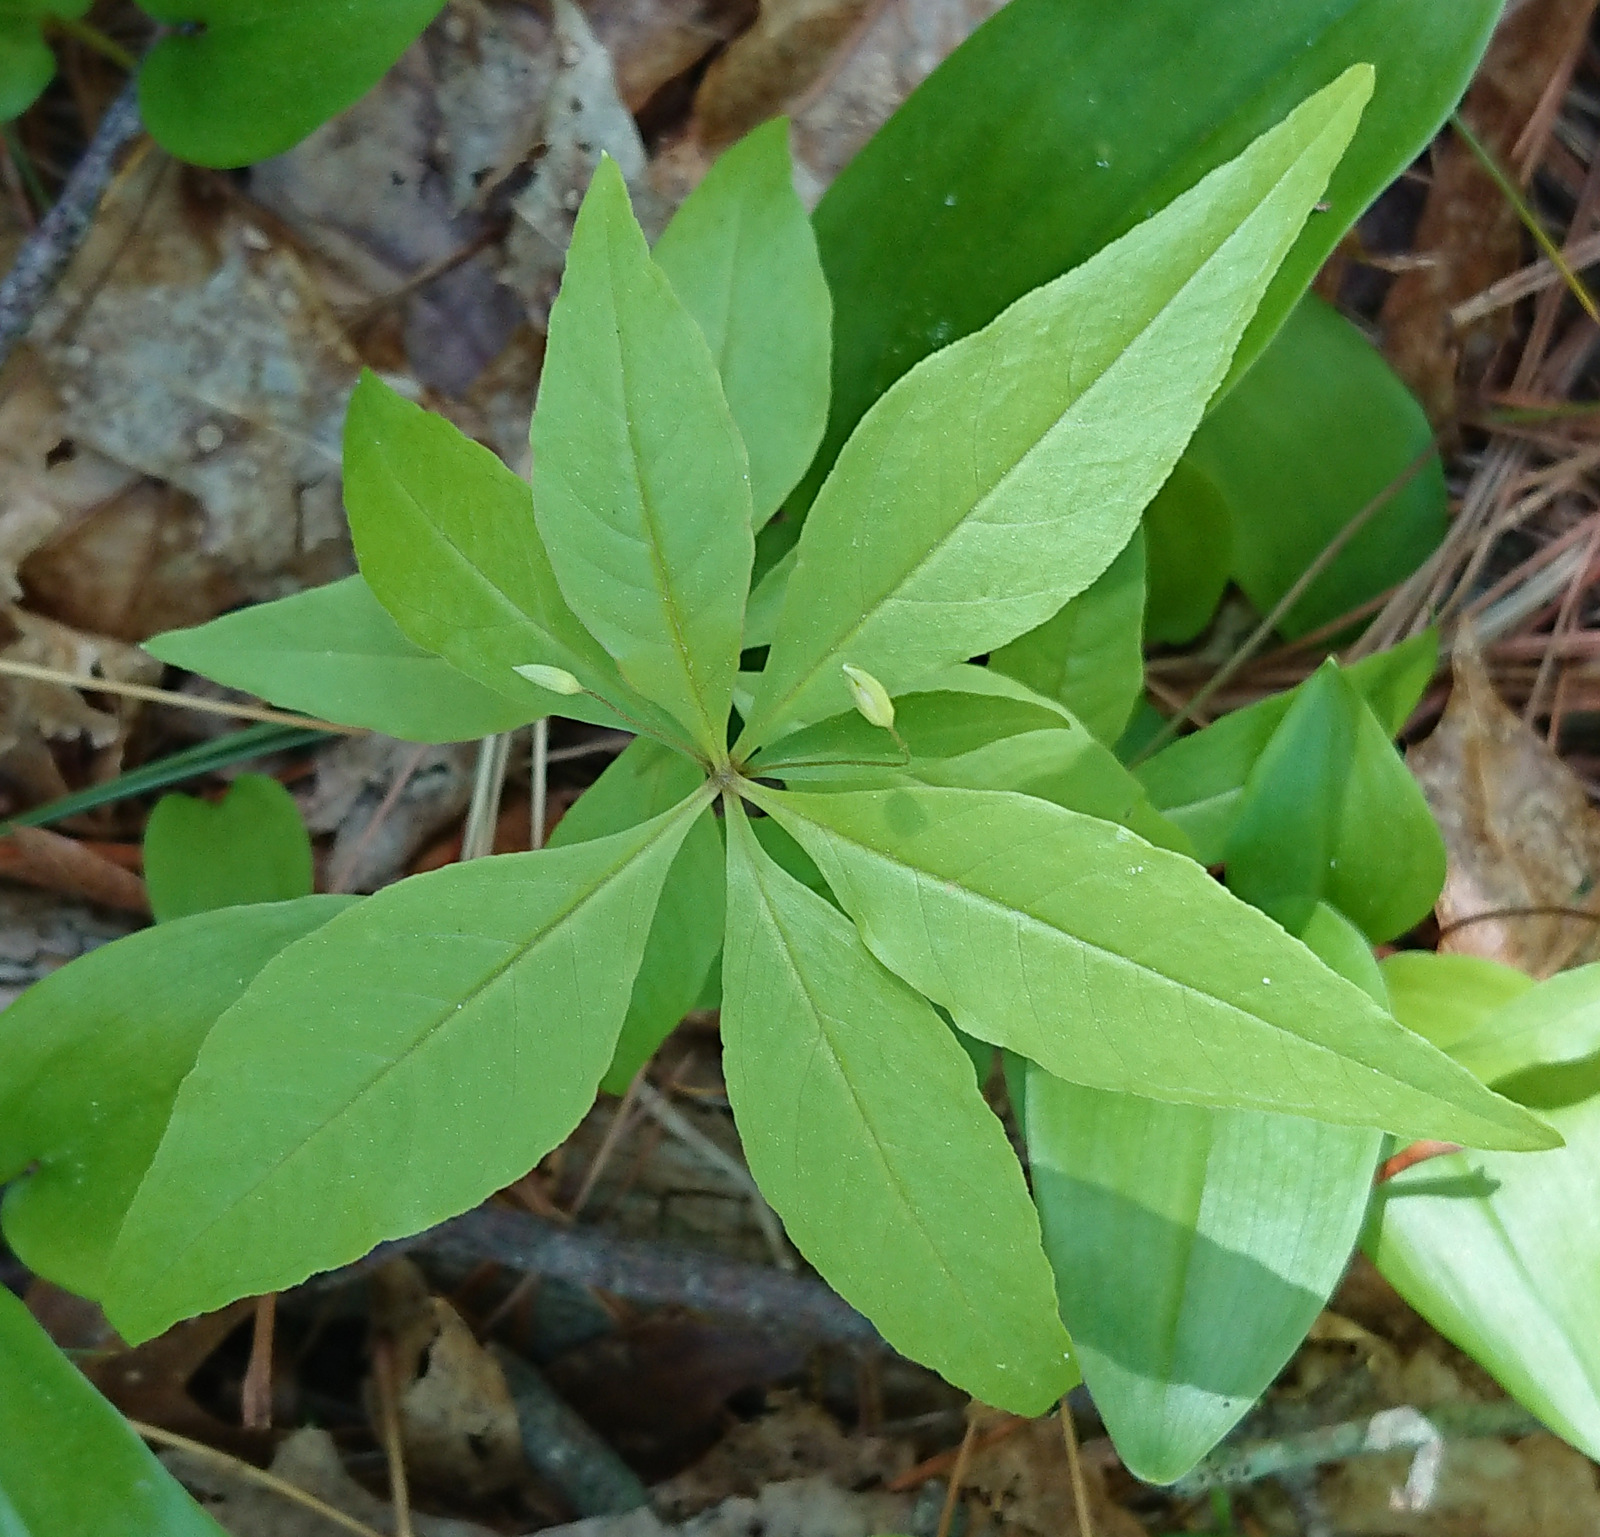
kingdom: Plantae
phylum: Tracheophyta
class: Magnoliopsida
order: Ericales
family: Primulaceae
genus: Lysimachia
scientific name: Lysimachia borealis
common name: American starflower
